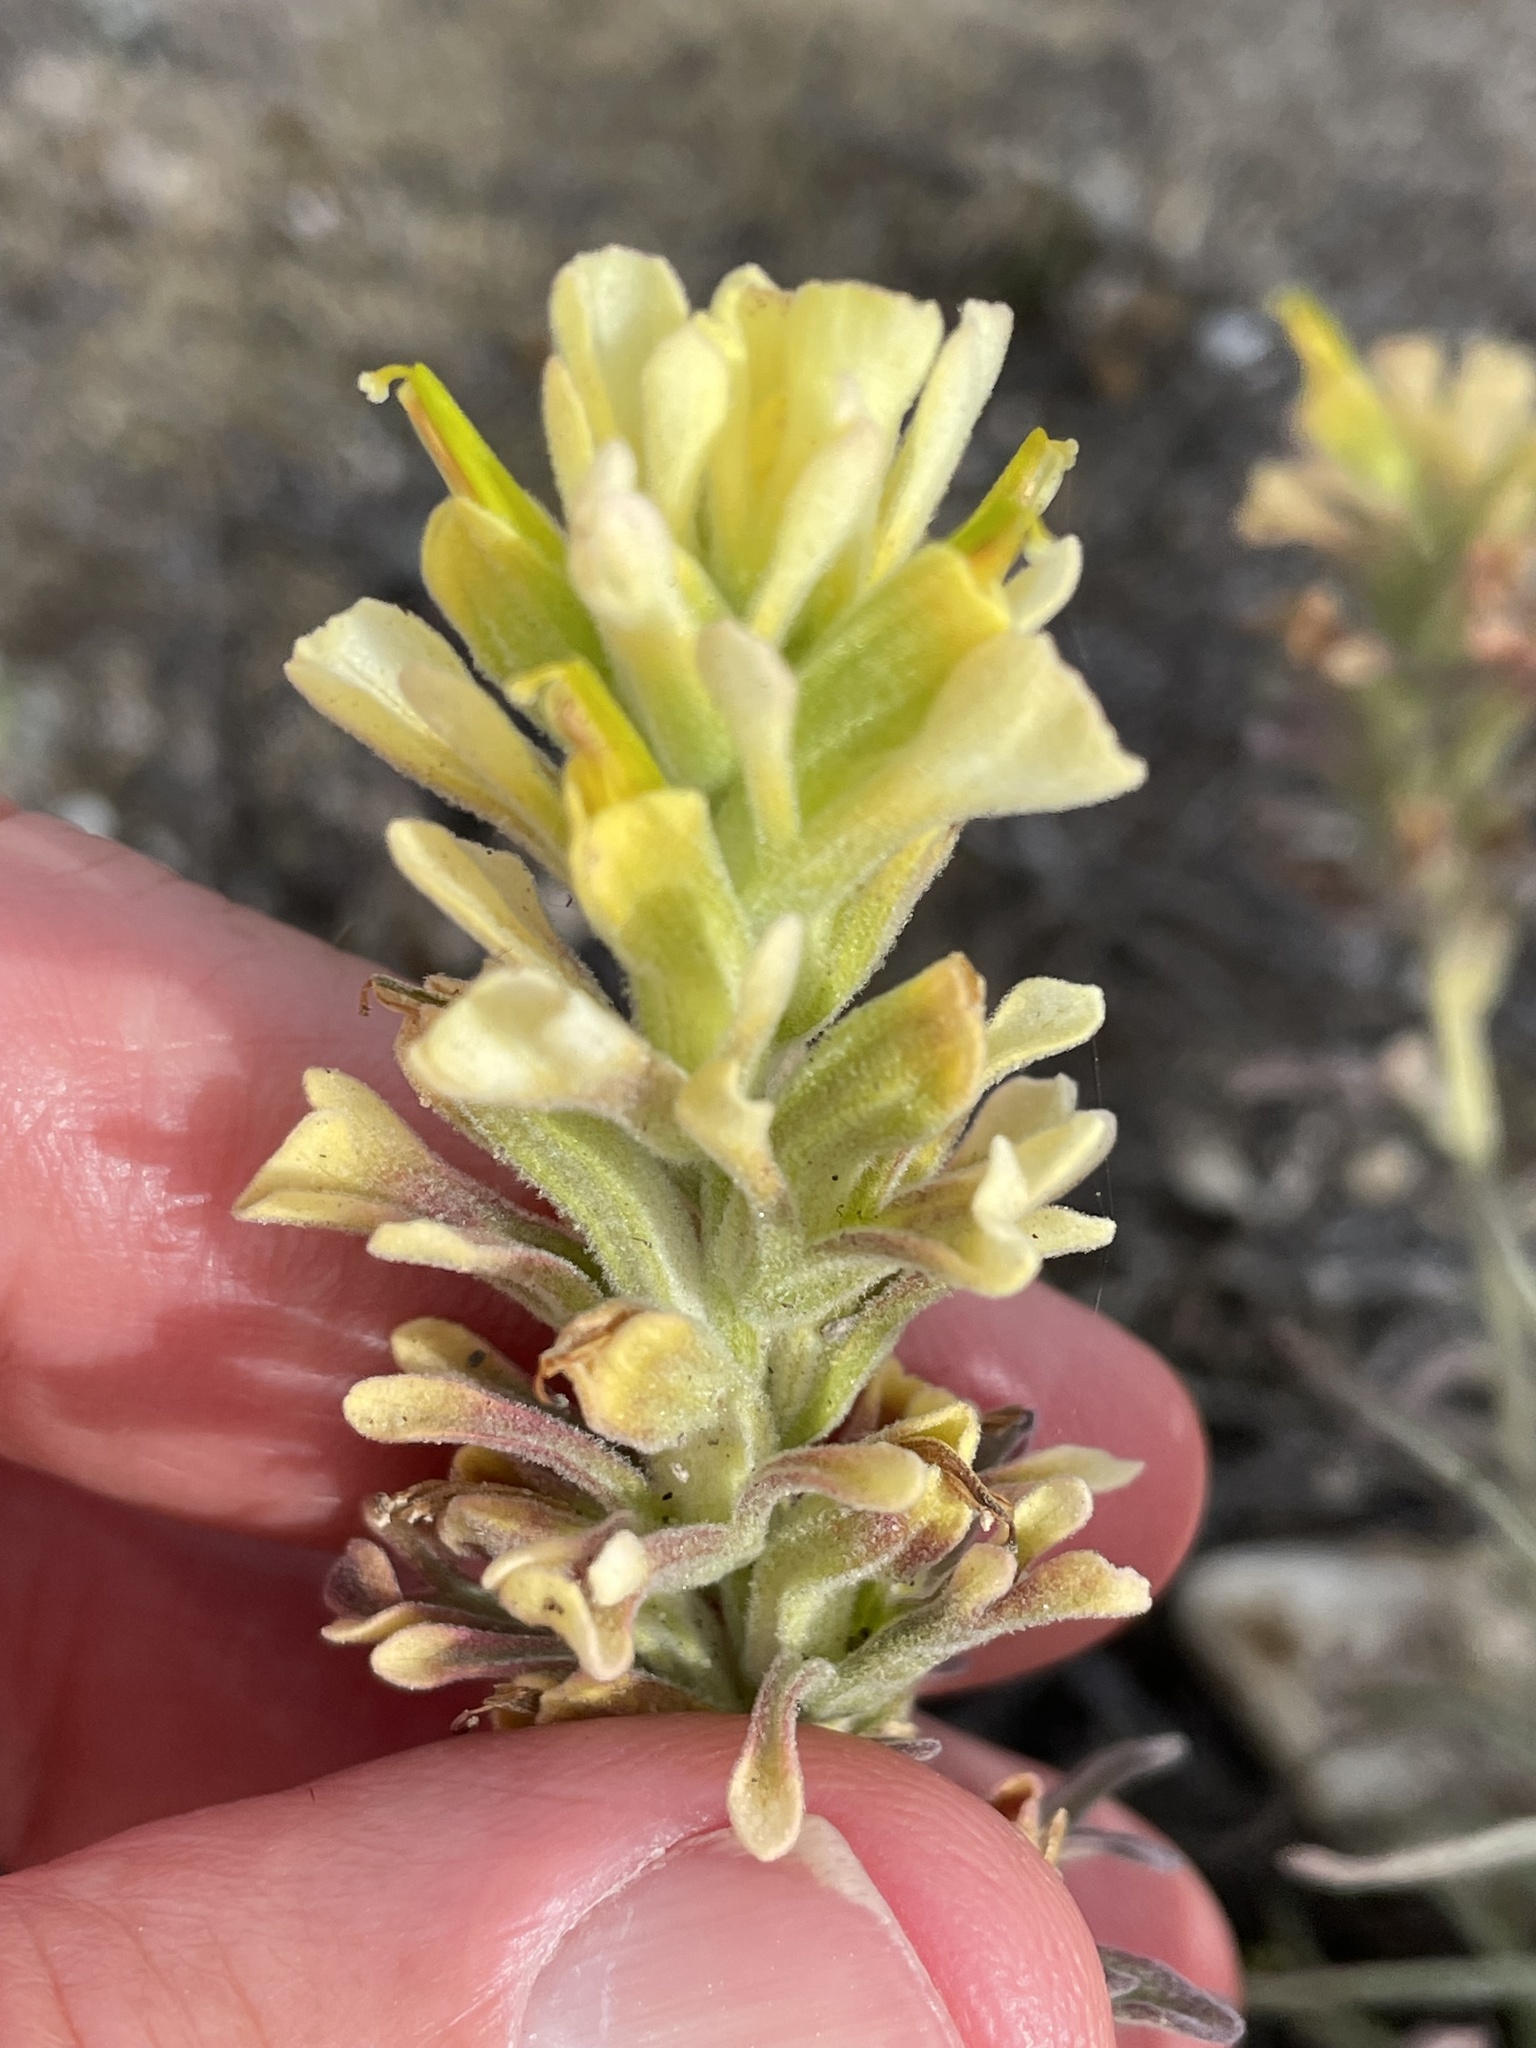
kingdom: Plantae
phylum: Tracheophyta
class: Magnoliopsida
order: Lamiales
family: Orobanchaceae
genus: Castilleja
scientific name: Castilleja foliolosa
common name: Woolly indian paintbrush
